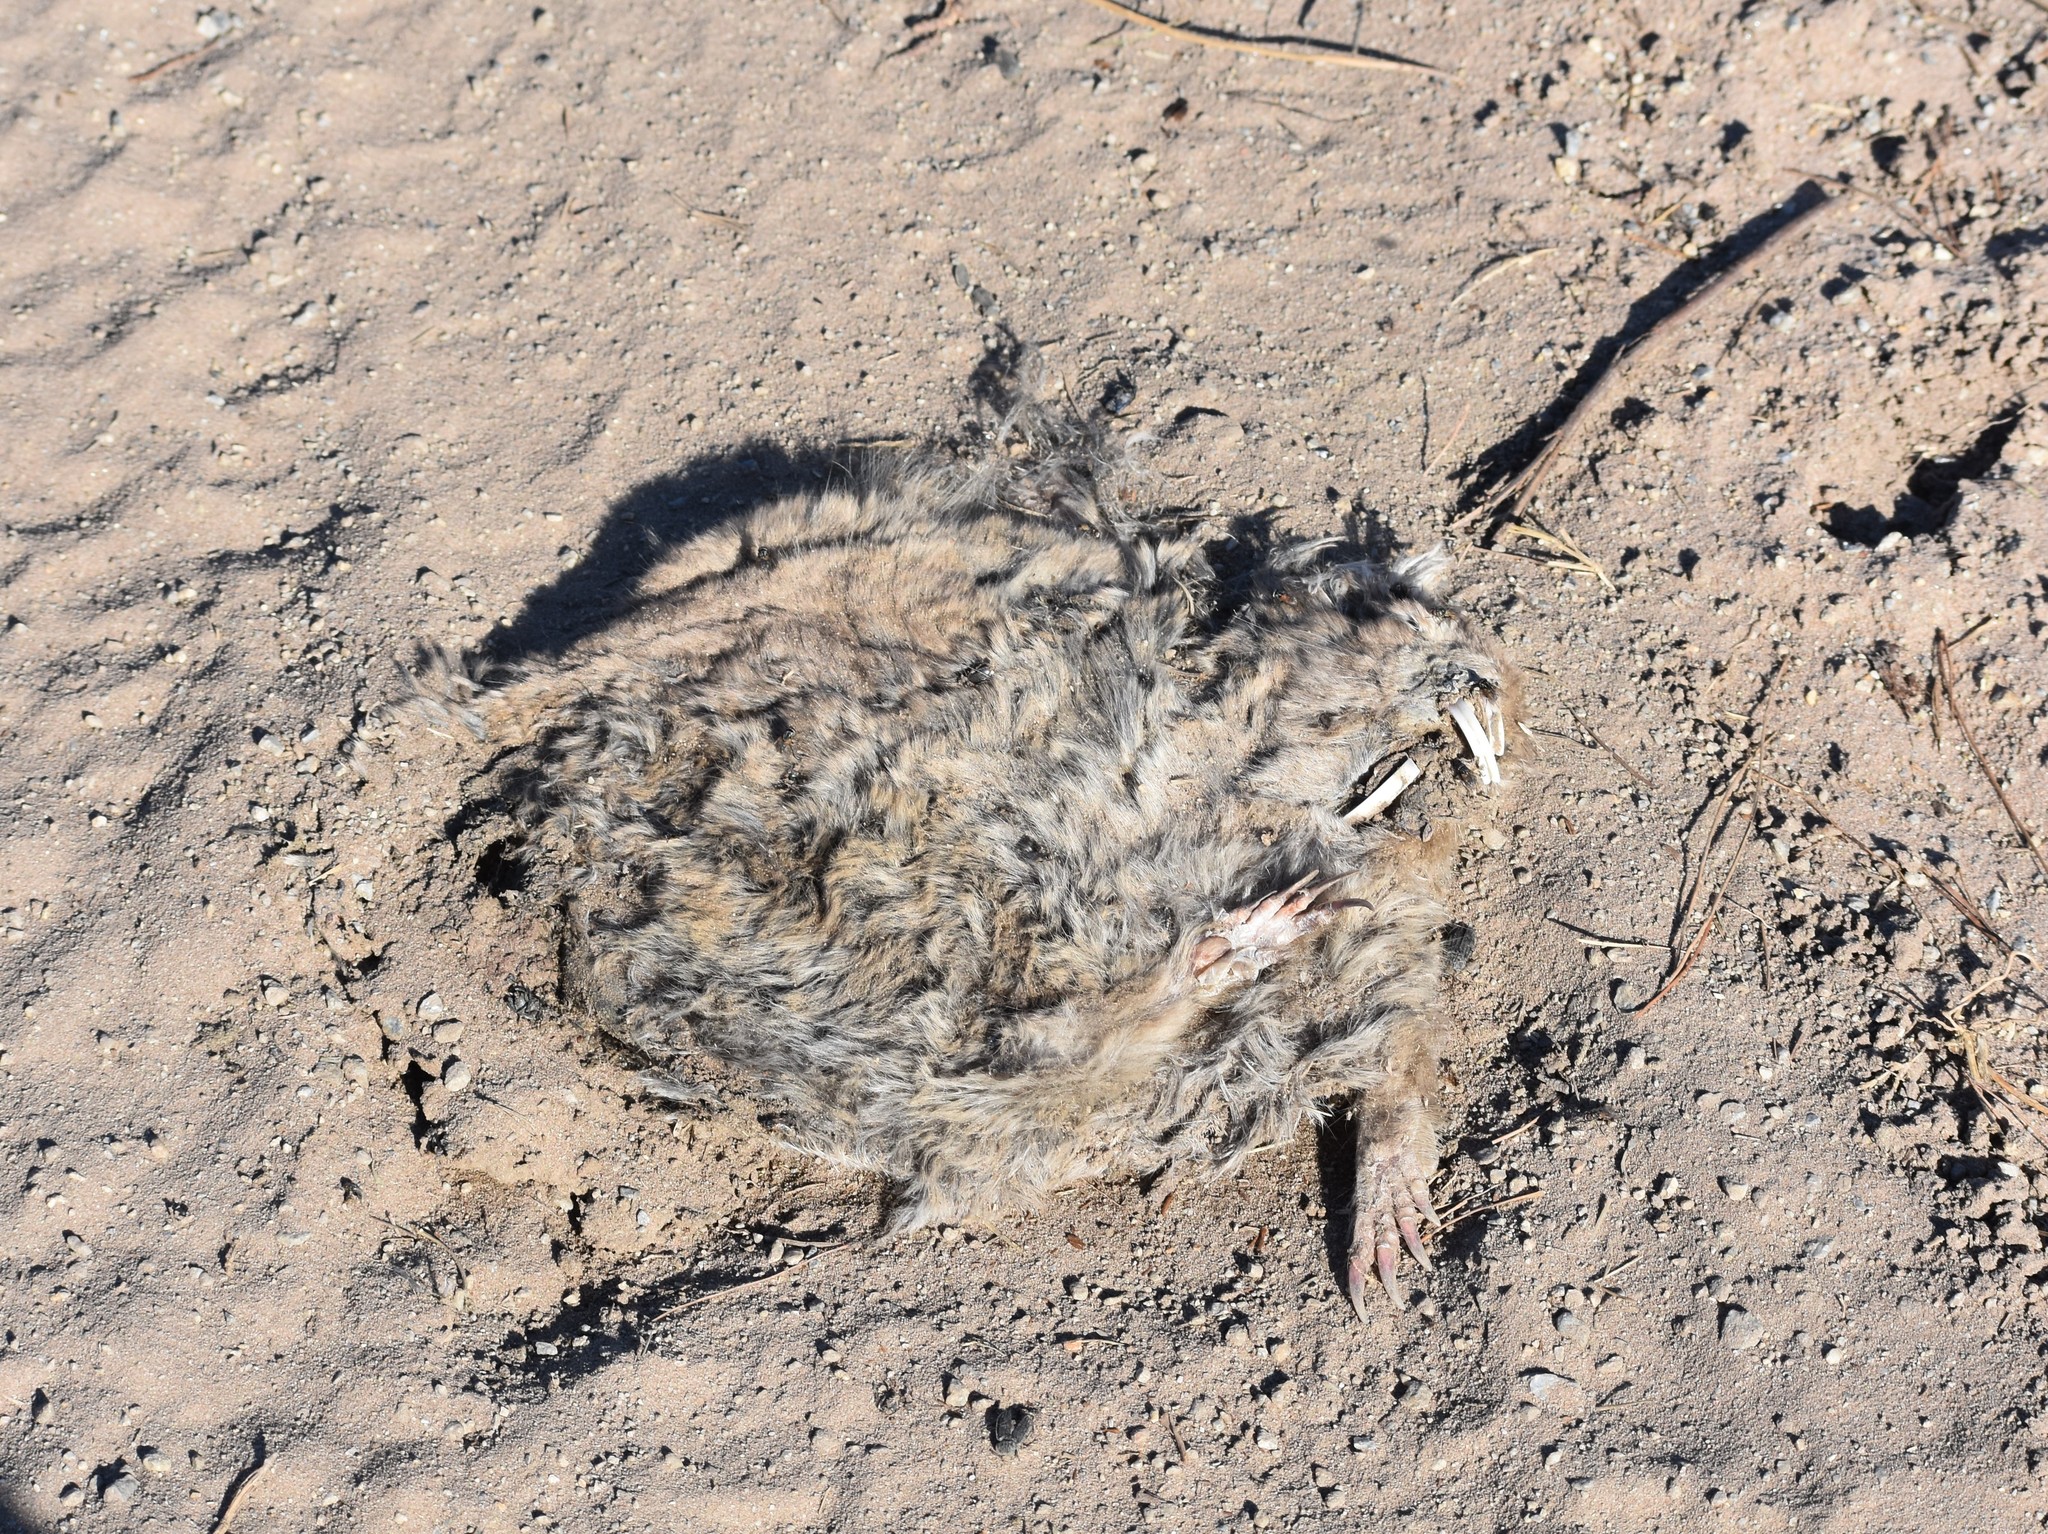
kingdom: Animalia
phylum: Chordata
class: Mammalia
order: Rodentia
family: Bathyergidae
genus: Bathyergus
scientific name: Bathyergus suillus
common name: Cape dune mole rat
